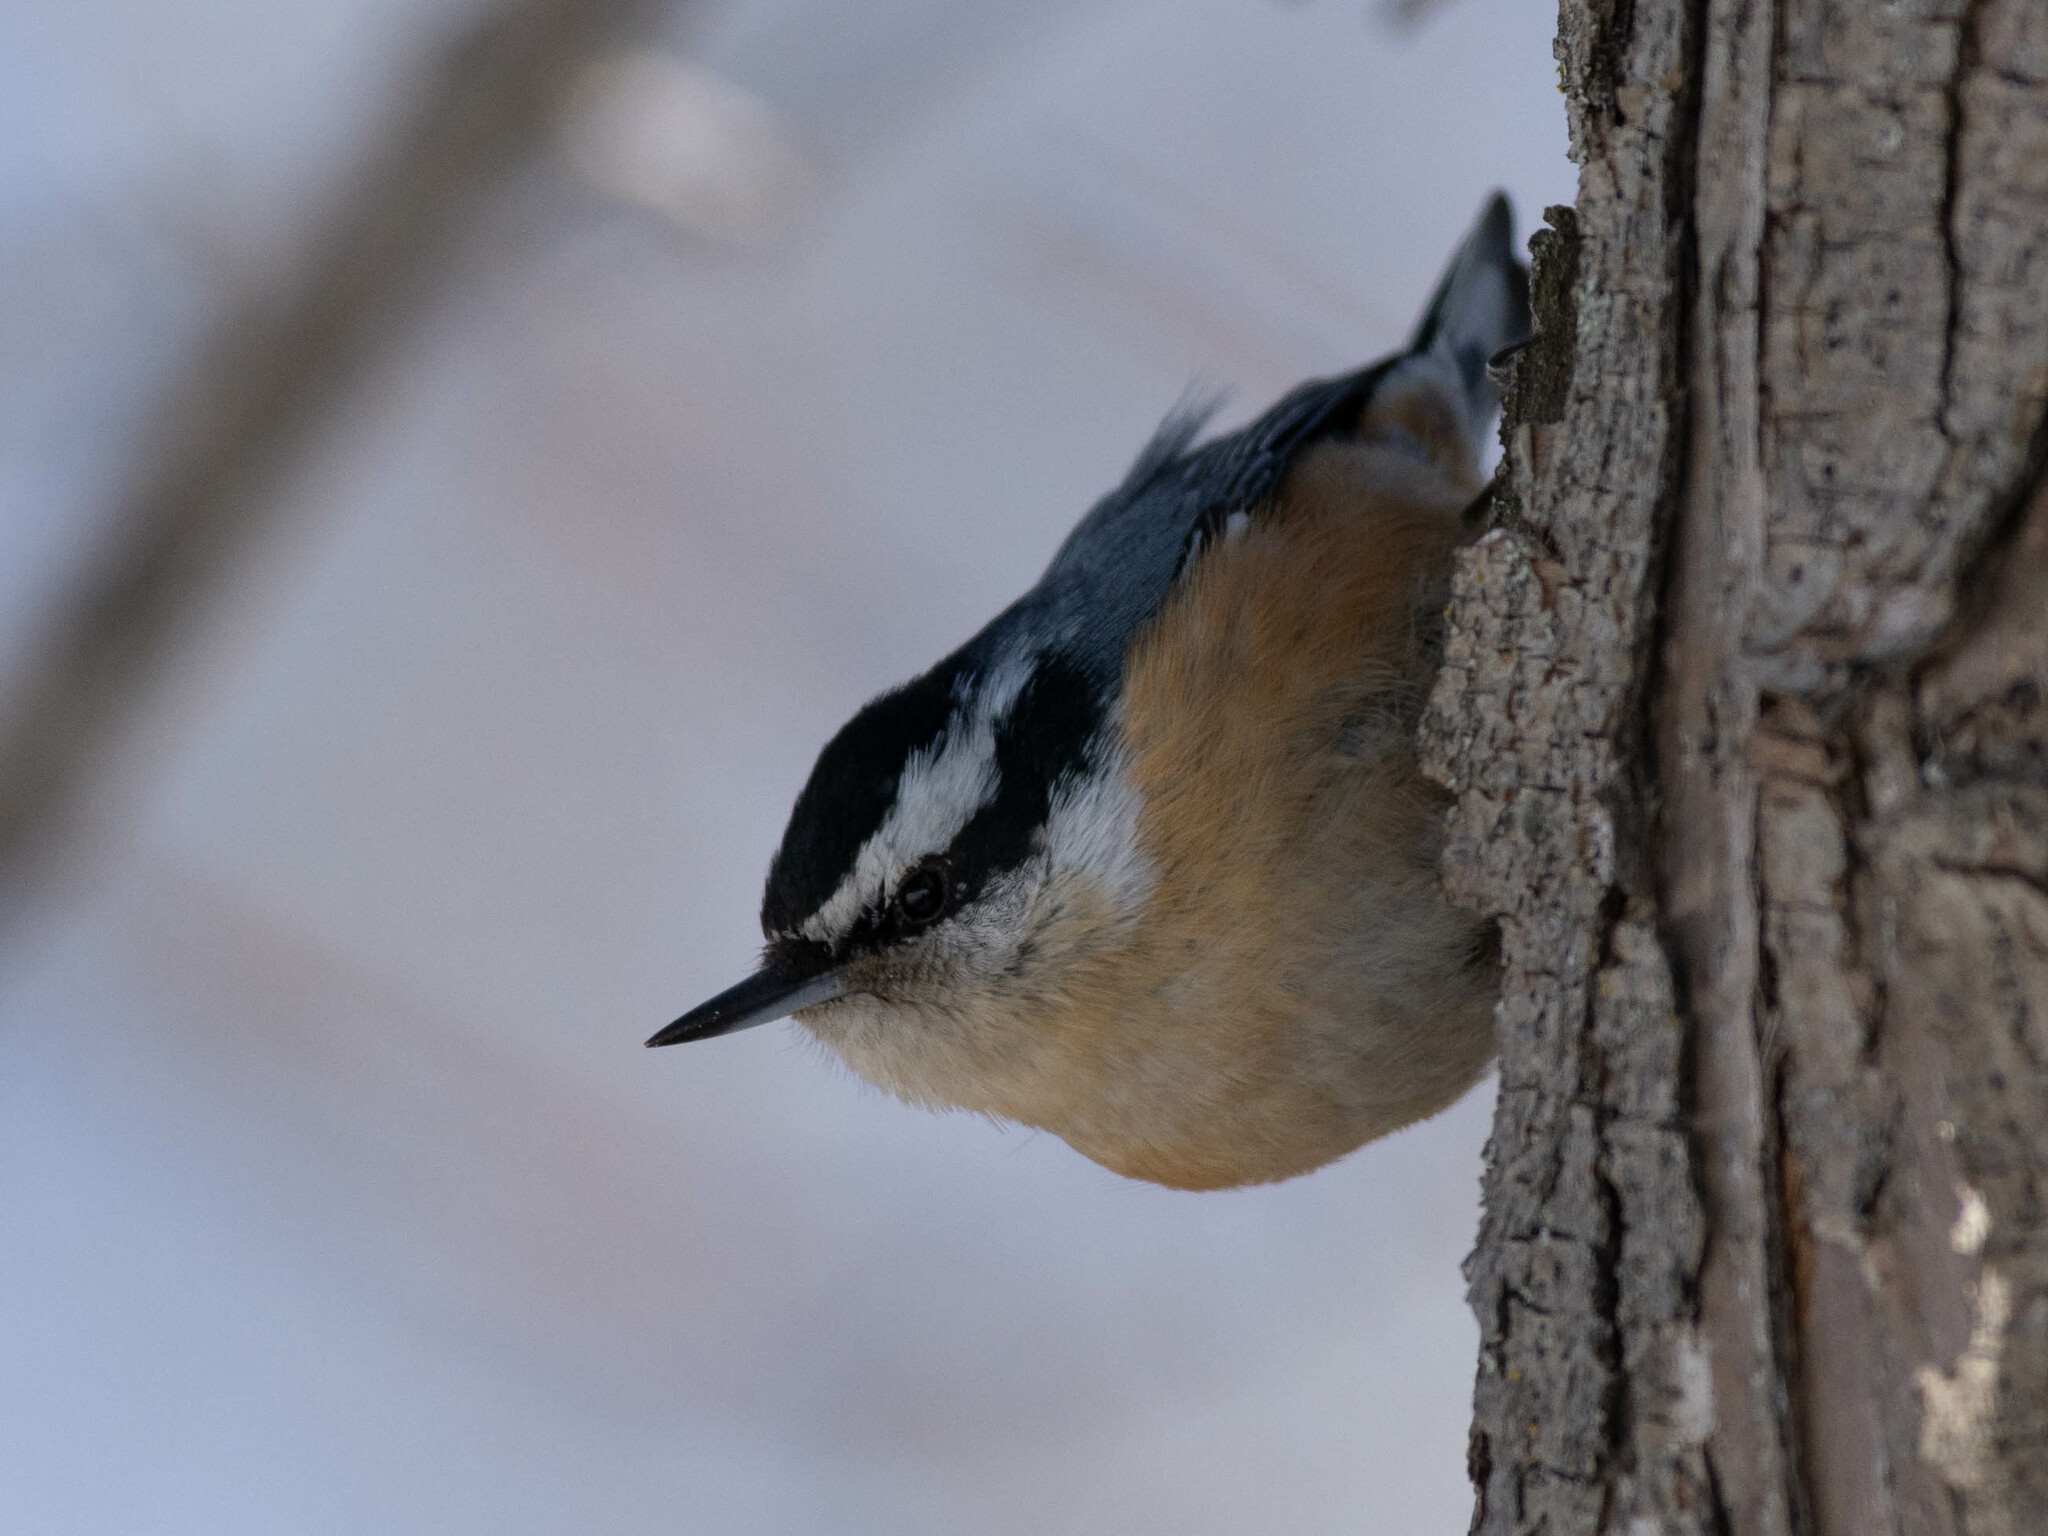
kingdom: Animalia
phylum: Chordata
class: Aves
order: Passeriformes
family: Sittidae
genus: Sitta
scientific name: Sitta canadensis
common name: Red-breasted nuthatch
